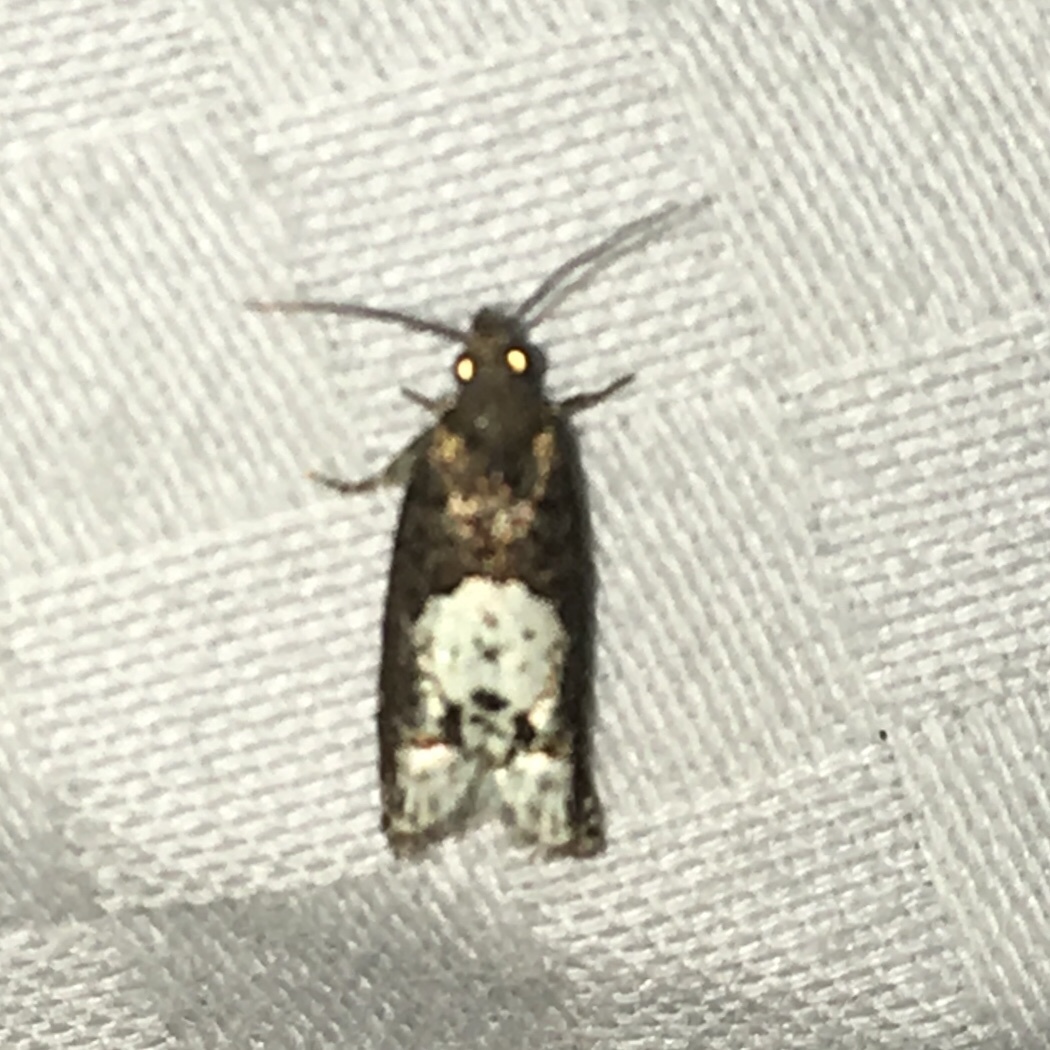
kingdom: Animalia
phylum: Arthropoda
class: Insecta
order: Lepidoptera
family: Tortricidae
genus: Eucosma
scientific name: Eucosma parmatana
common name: Aster eucosma moth
